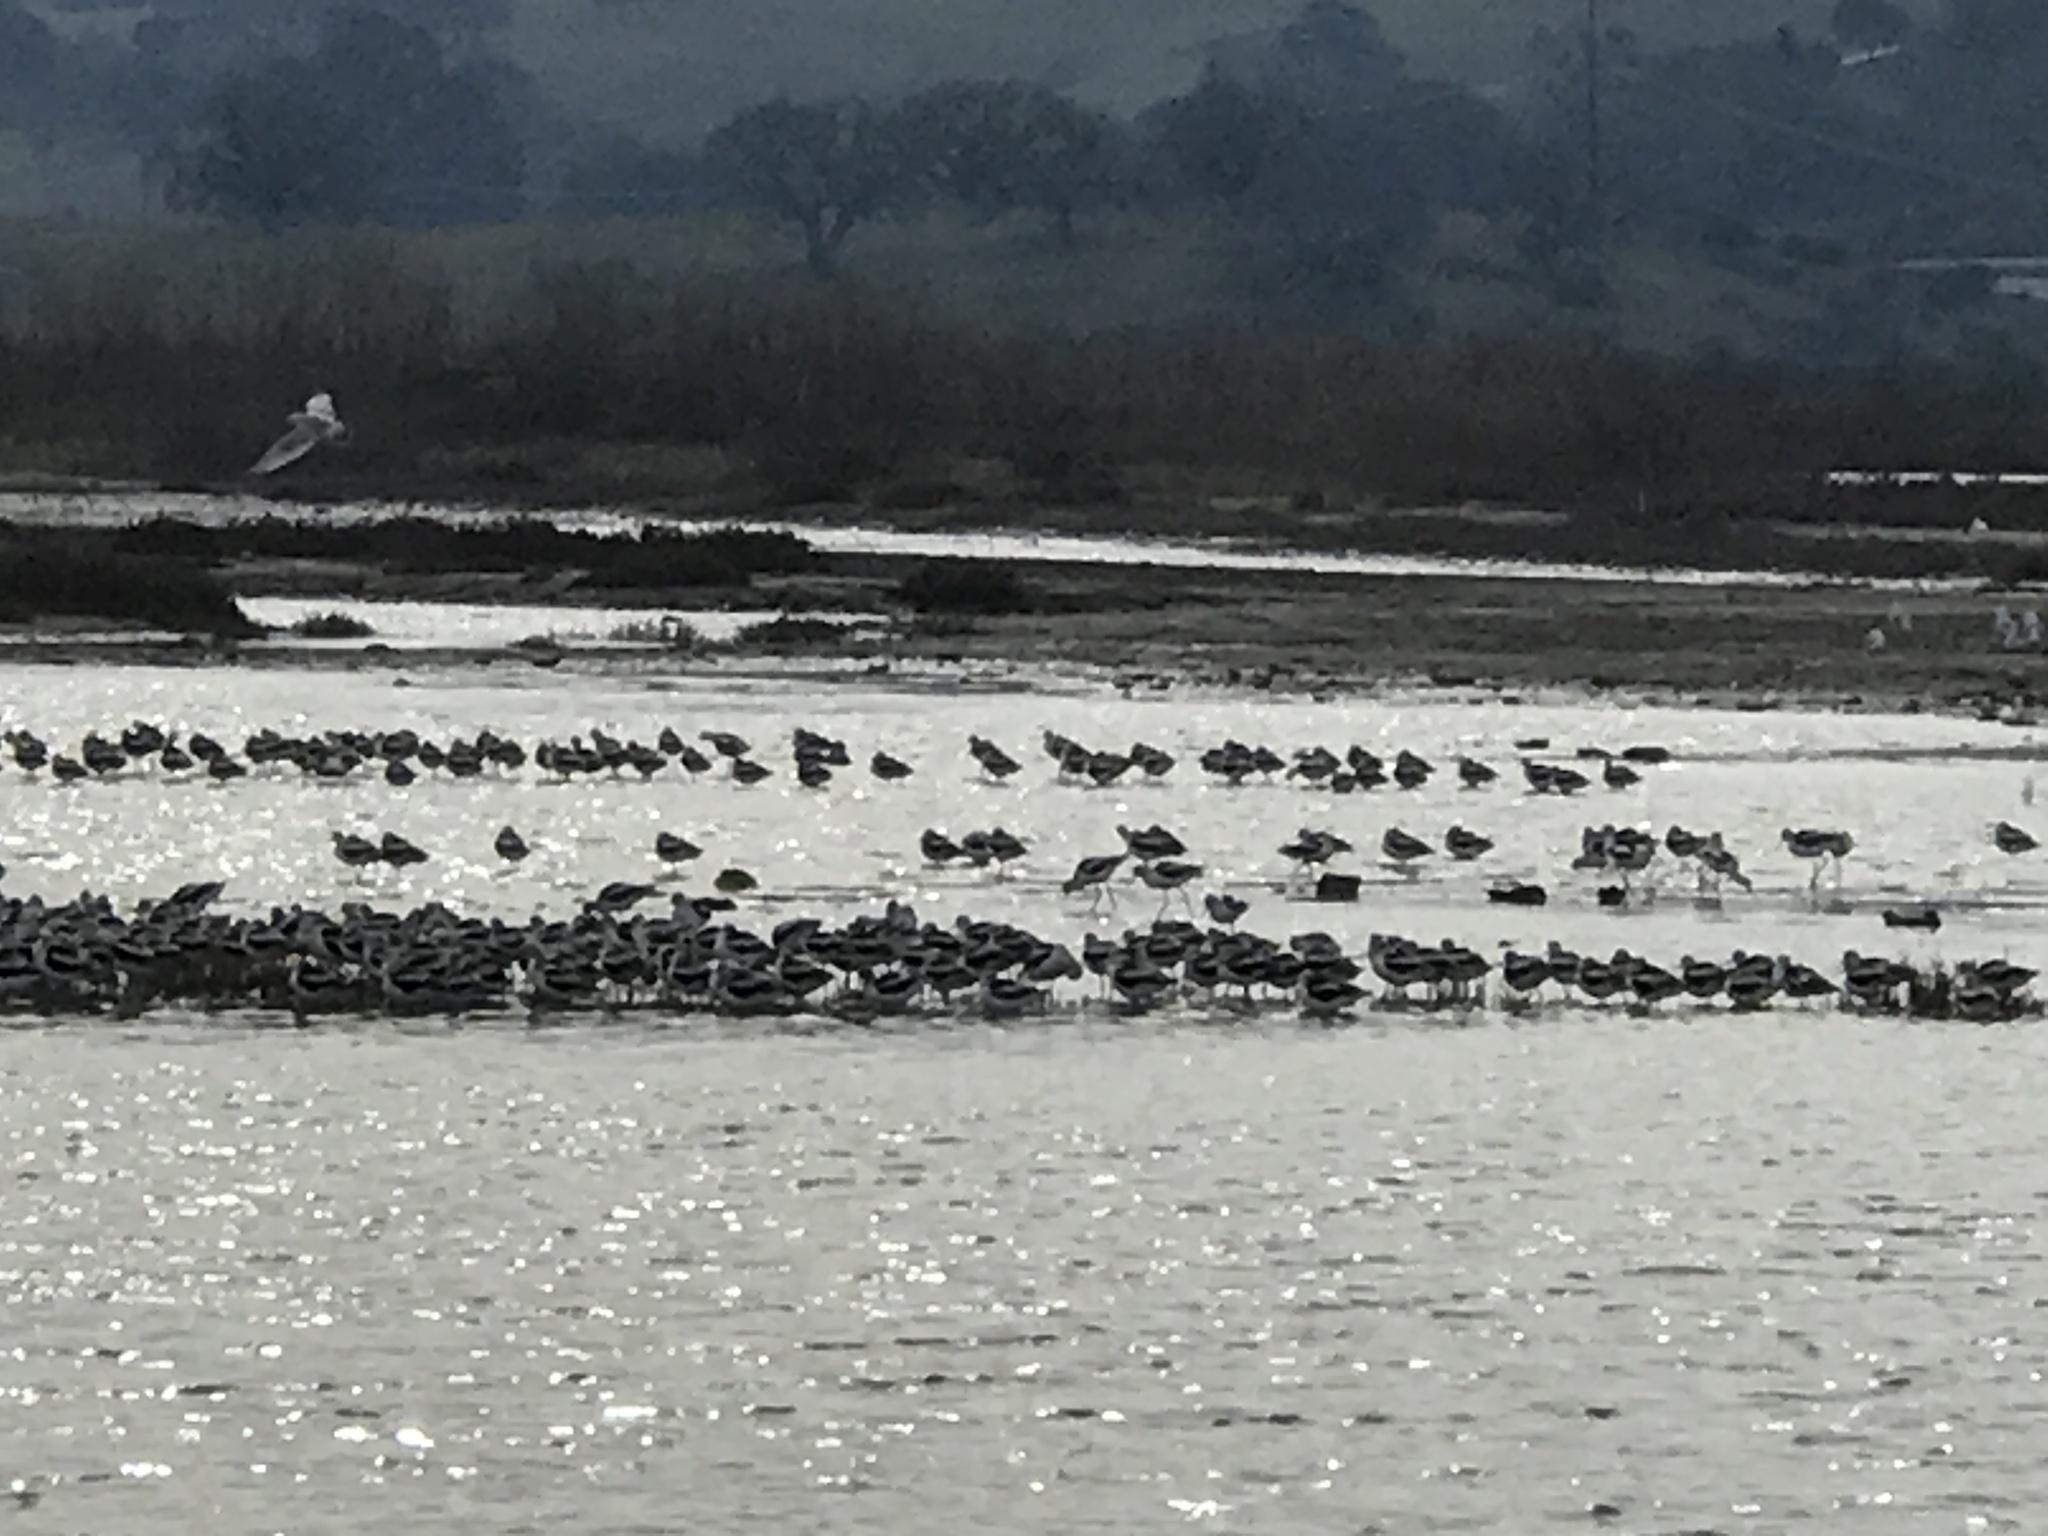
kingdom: Animalia
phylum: Chordata
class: Aves
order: Charadriiformes
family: Recurvirostridae
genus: Recurvirostra
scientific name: Recurvirostra americana
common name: American avocet
